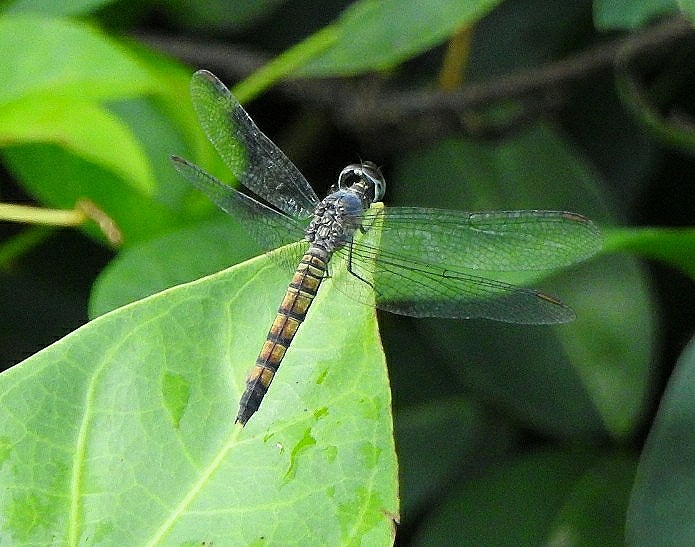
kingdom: Animalia
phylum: Arthropoda
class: Insecta
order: Odonata
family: Libellulidae
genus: Brachydiplax
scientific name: Brachydiplax chalybea
